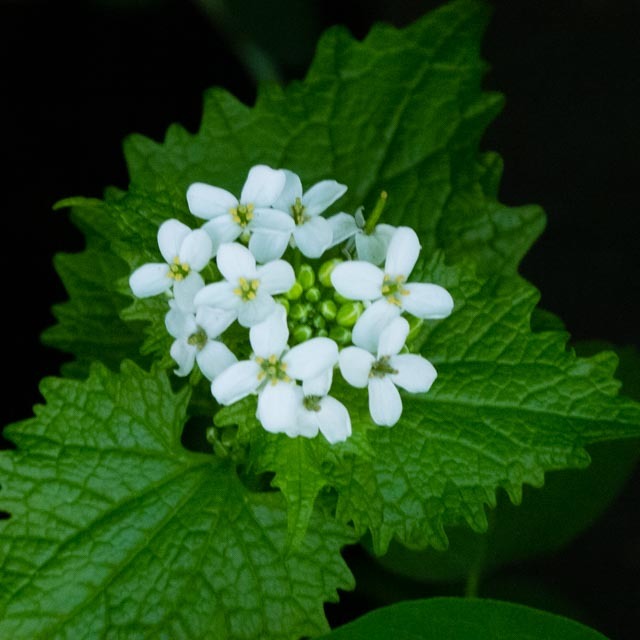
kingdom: Plantae
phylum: Tracheophyta
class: Magnoliopsida
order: Brassicales
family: Brassicaceae
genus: Alliaria
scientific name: Alliaria petiolata
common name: Garlic mustard
